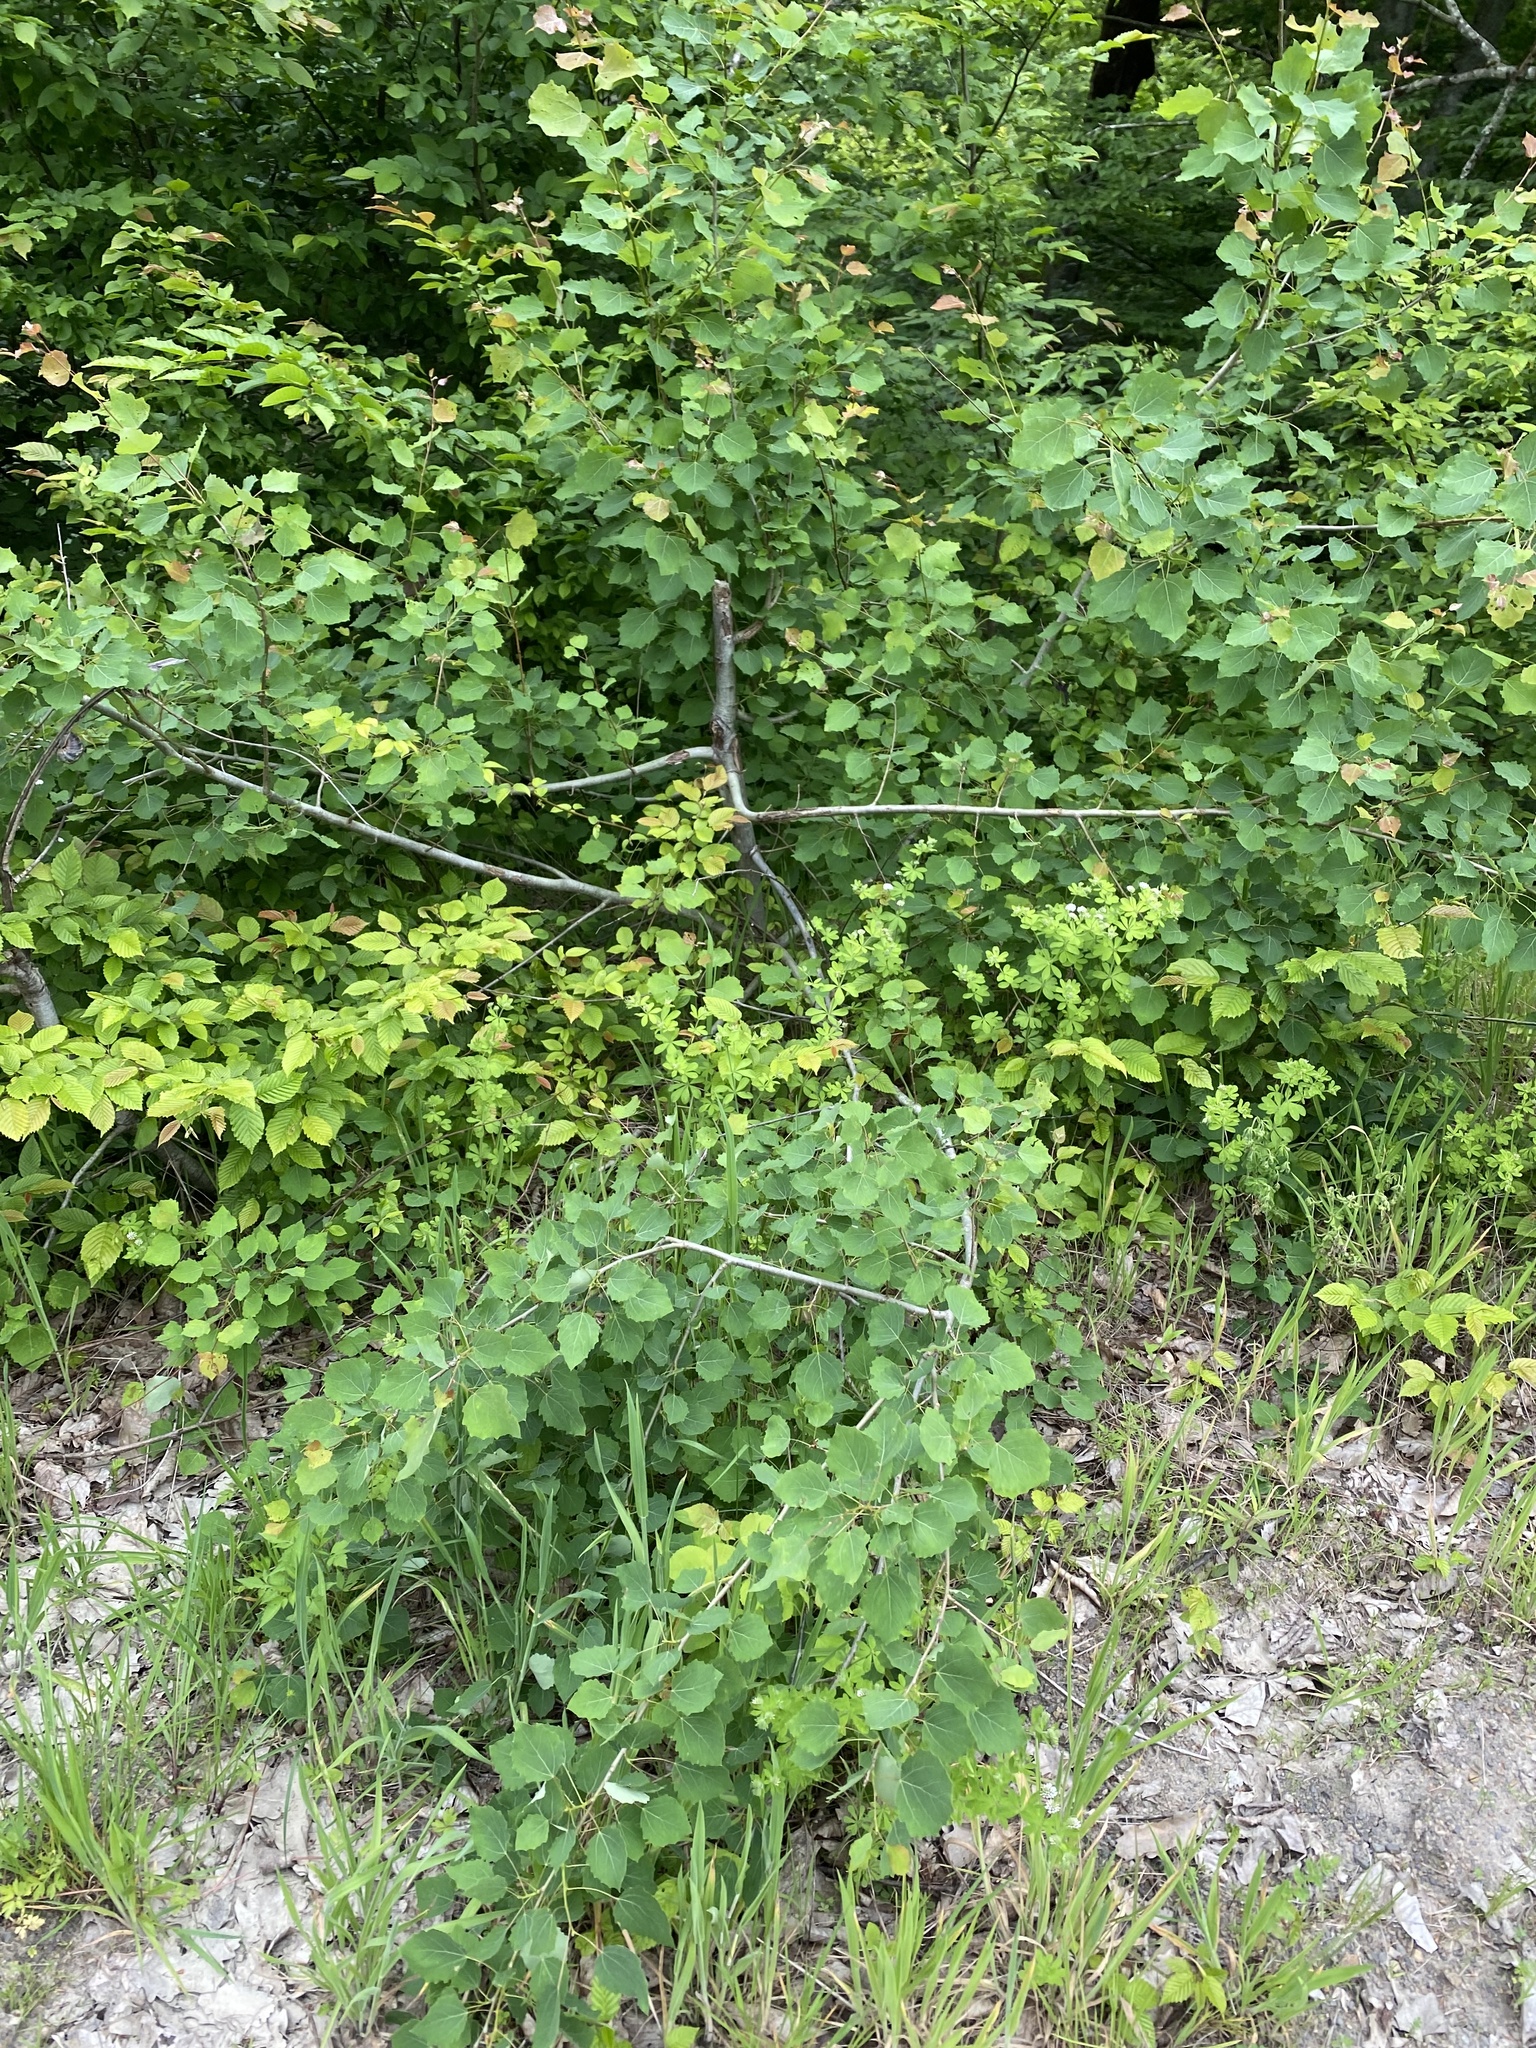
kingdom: Plantae
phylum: Tracheophyta
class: Magnoliopsida
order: Malpighiales
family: Salicaceae
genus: Populus
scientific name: Populus tremula
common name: European aspen
